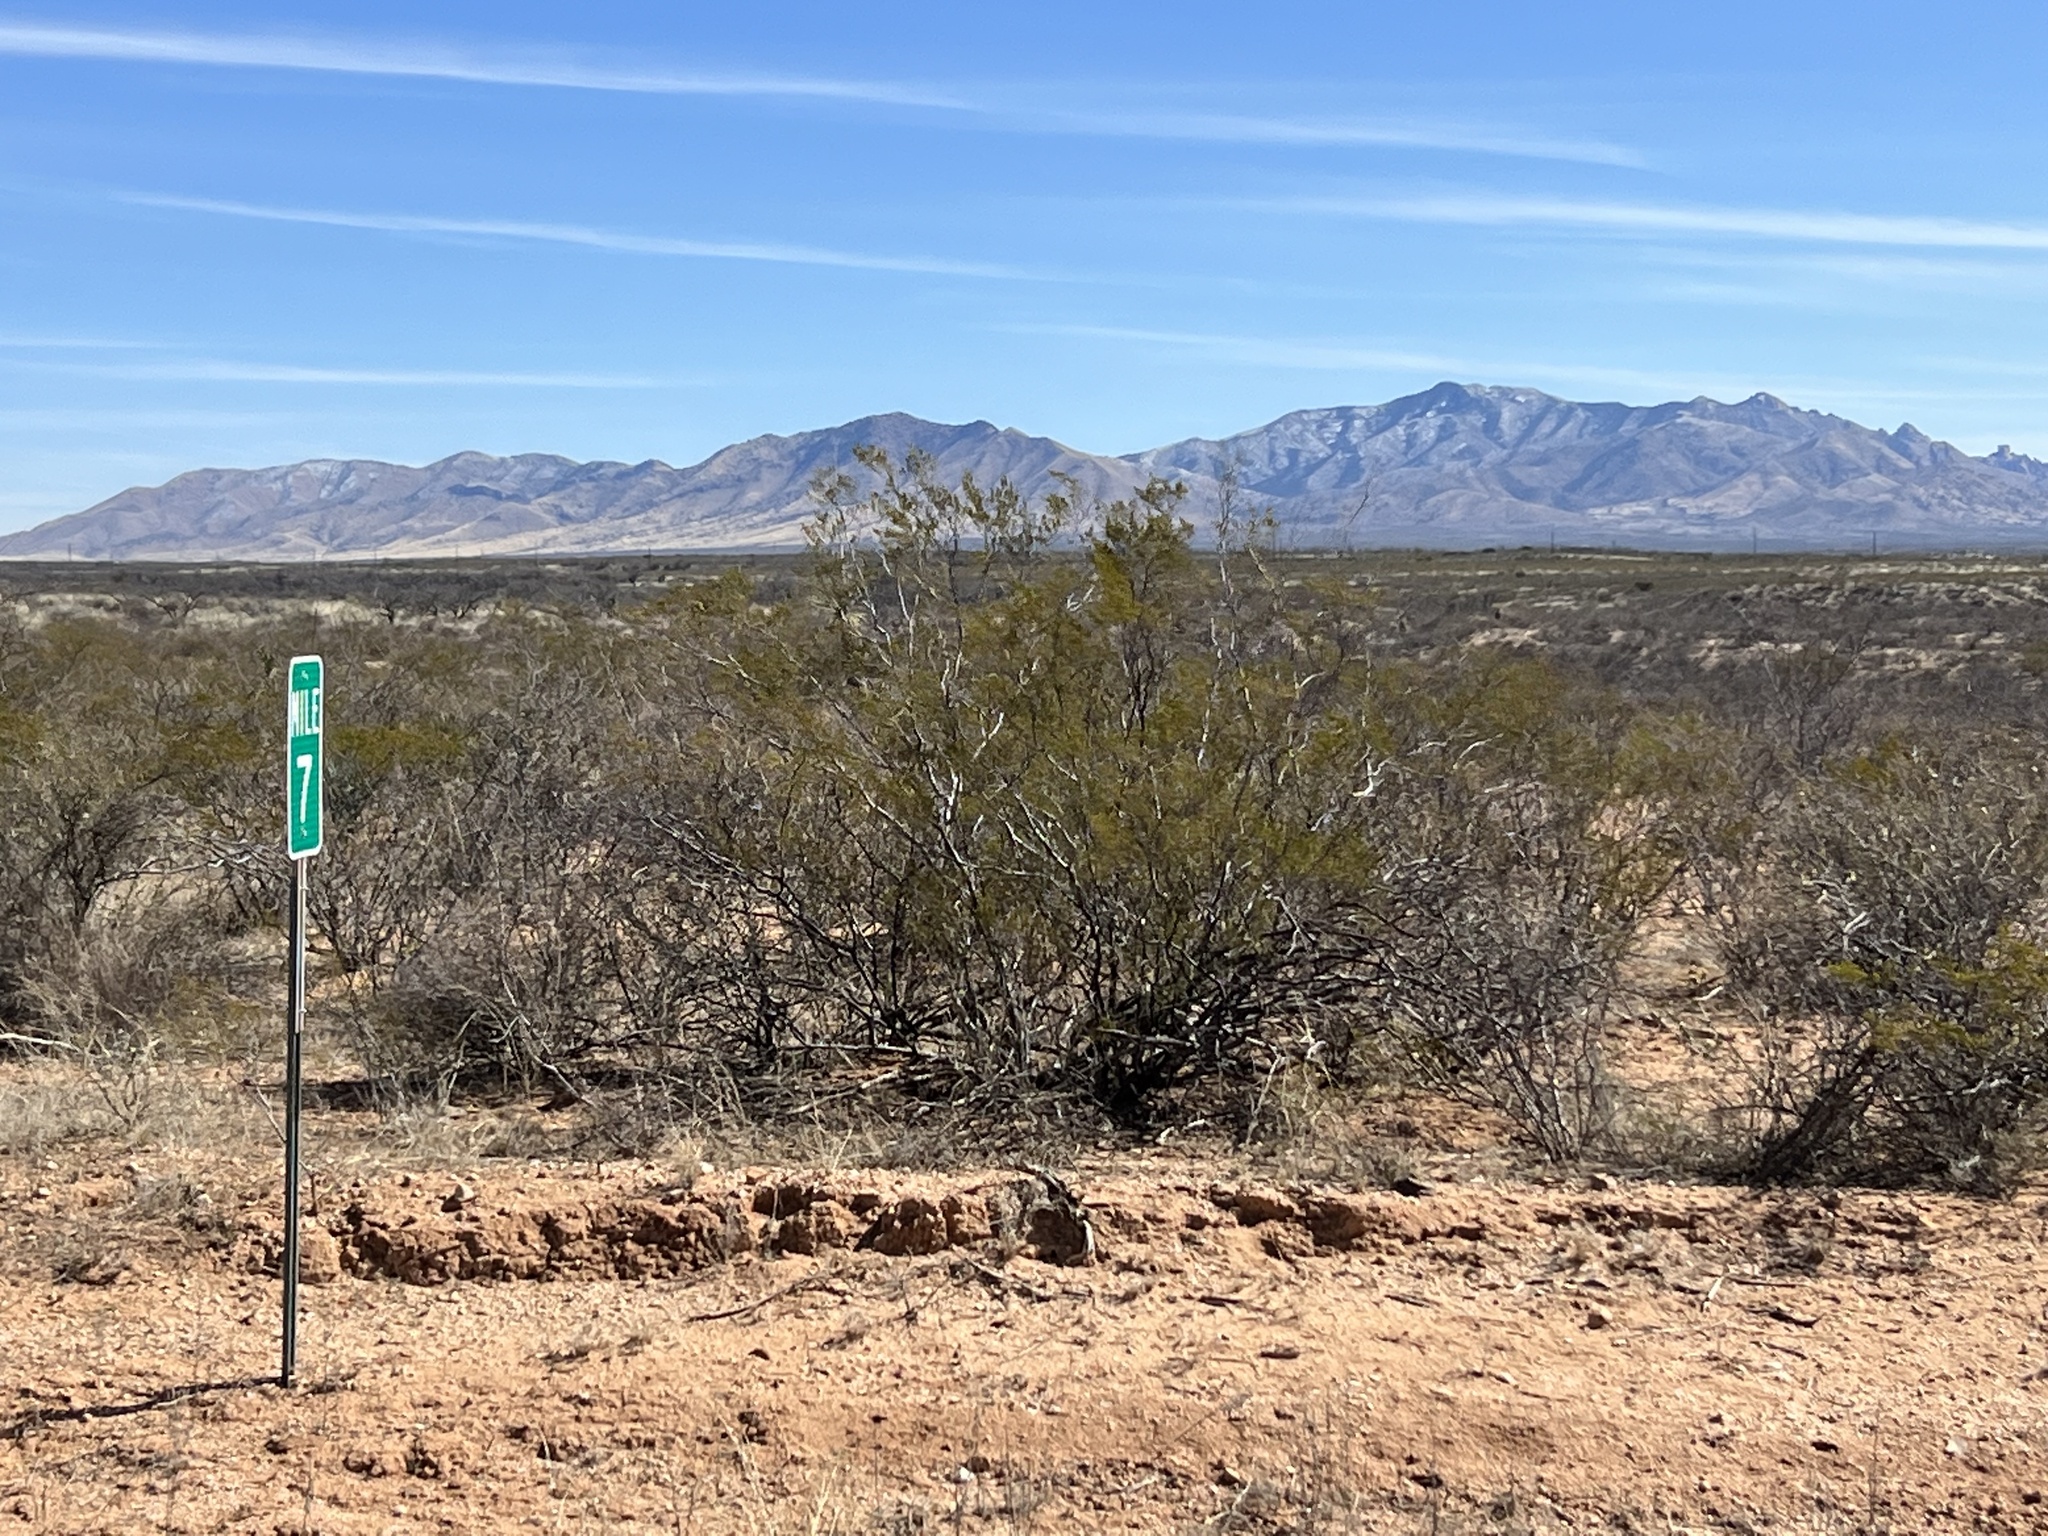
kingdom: Plantae
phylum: Tracheophyta
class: Magnoliopsida
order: Zygophyllales
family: Zygophyllaceae
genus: Larrea
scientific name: Larrea tridentata
